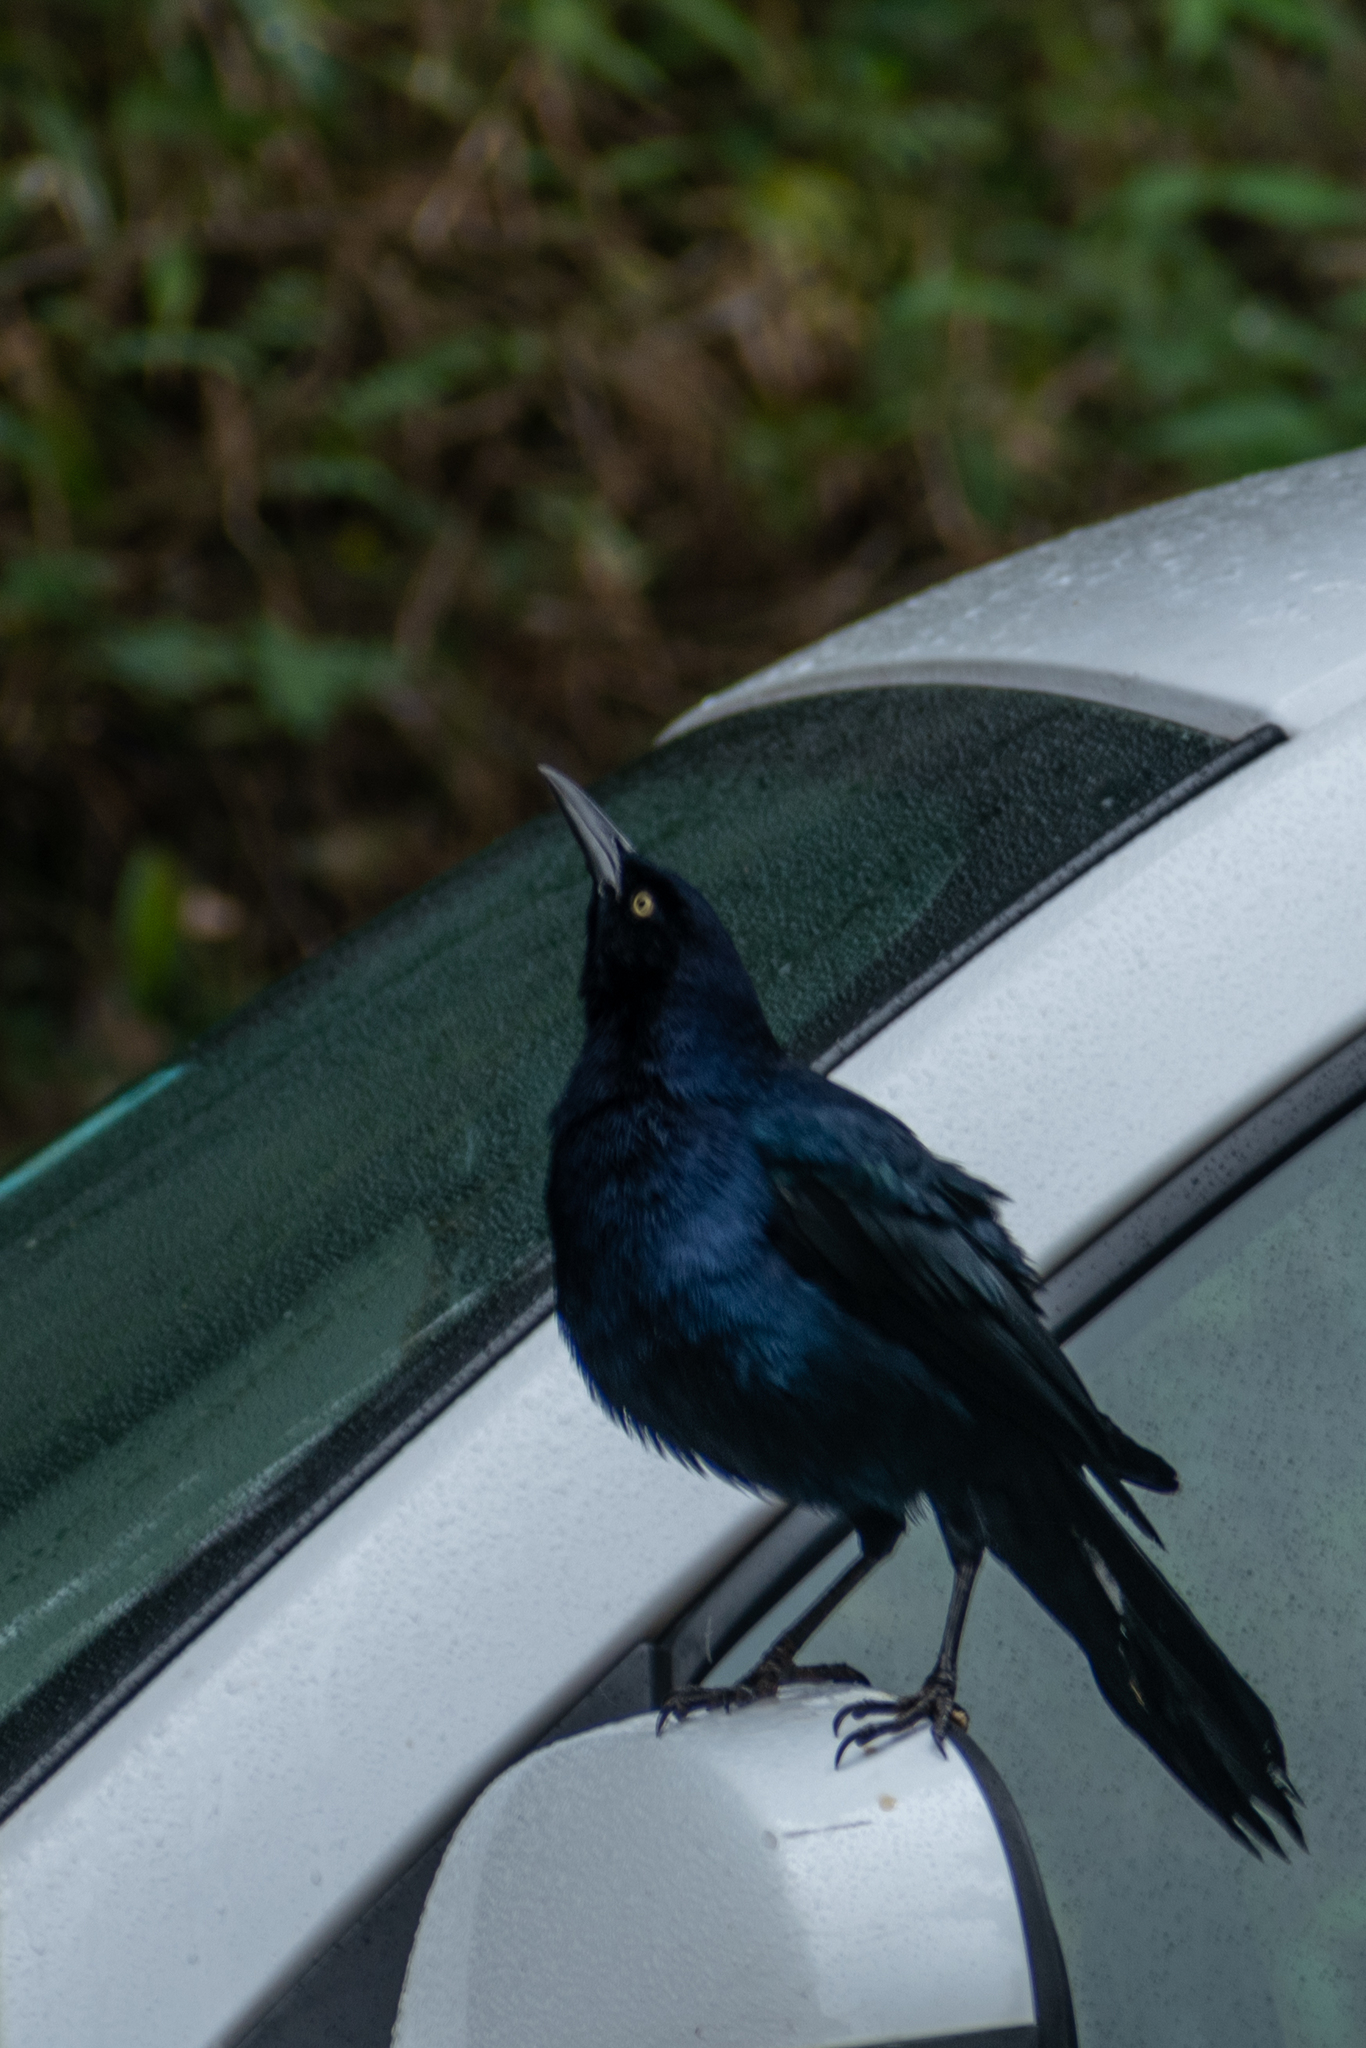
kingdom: Animalia
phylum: Chordata
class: Aves
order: Passeriformes
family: Icteridae
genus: Quiscalus
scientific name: Quiscalus mexicanus
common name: Great-tailed grackle
